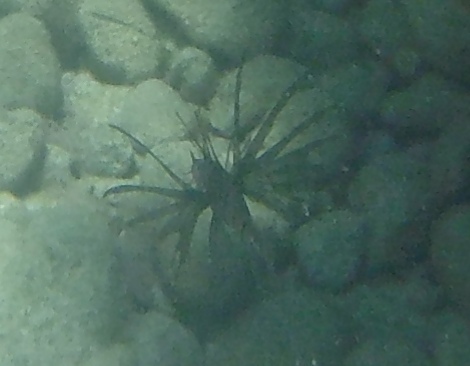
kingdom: Animalia
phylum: Chordata
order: Scorpaeniformes
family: Scorpaenidae
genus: Pterois
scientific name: Pterois miles
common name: Devil firefish
